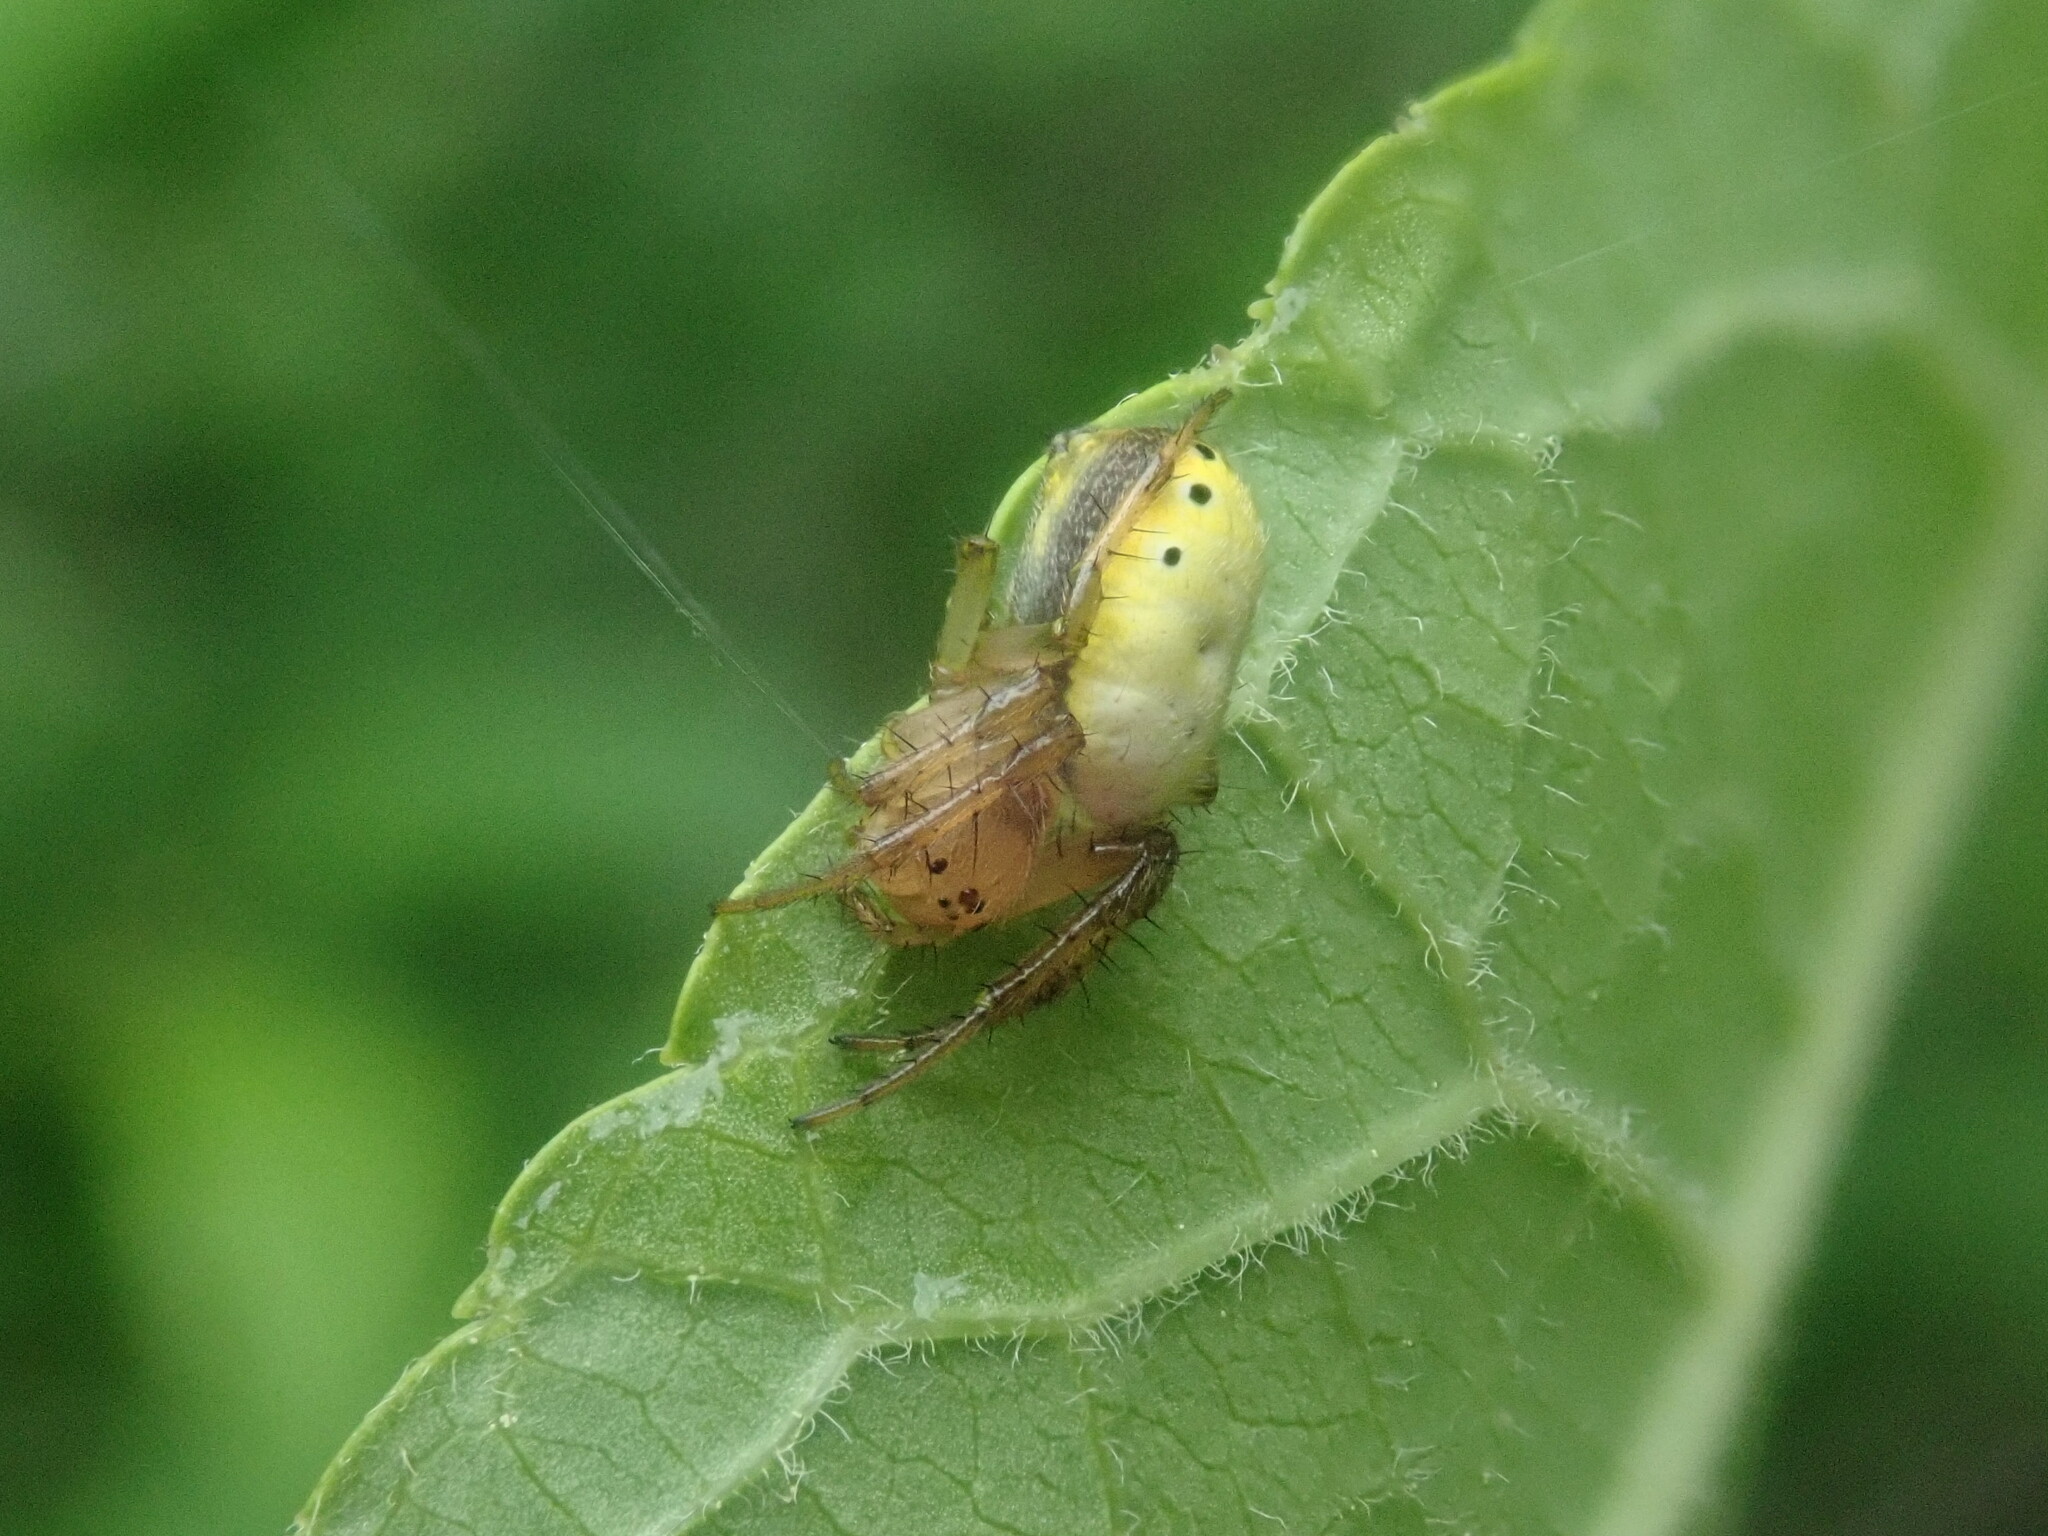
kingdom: Animalia
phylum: Arthropoda
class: Arachnida
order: Araneae
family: Araneidae
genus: Araniella
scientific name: Araniella displicata
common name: Sixspotted orb weaver
